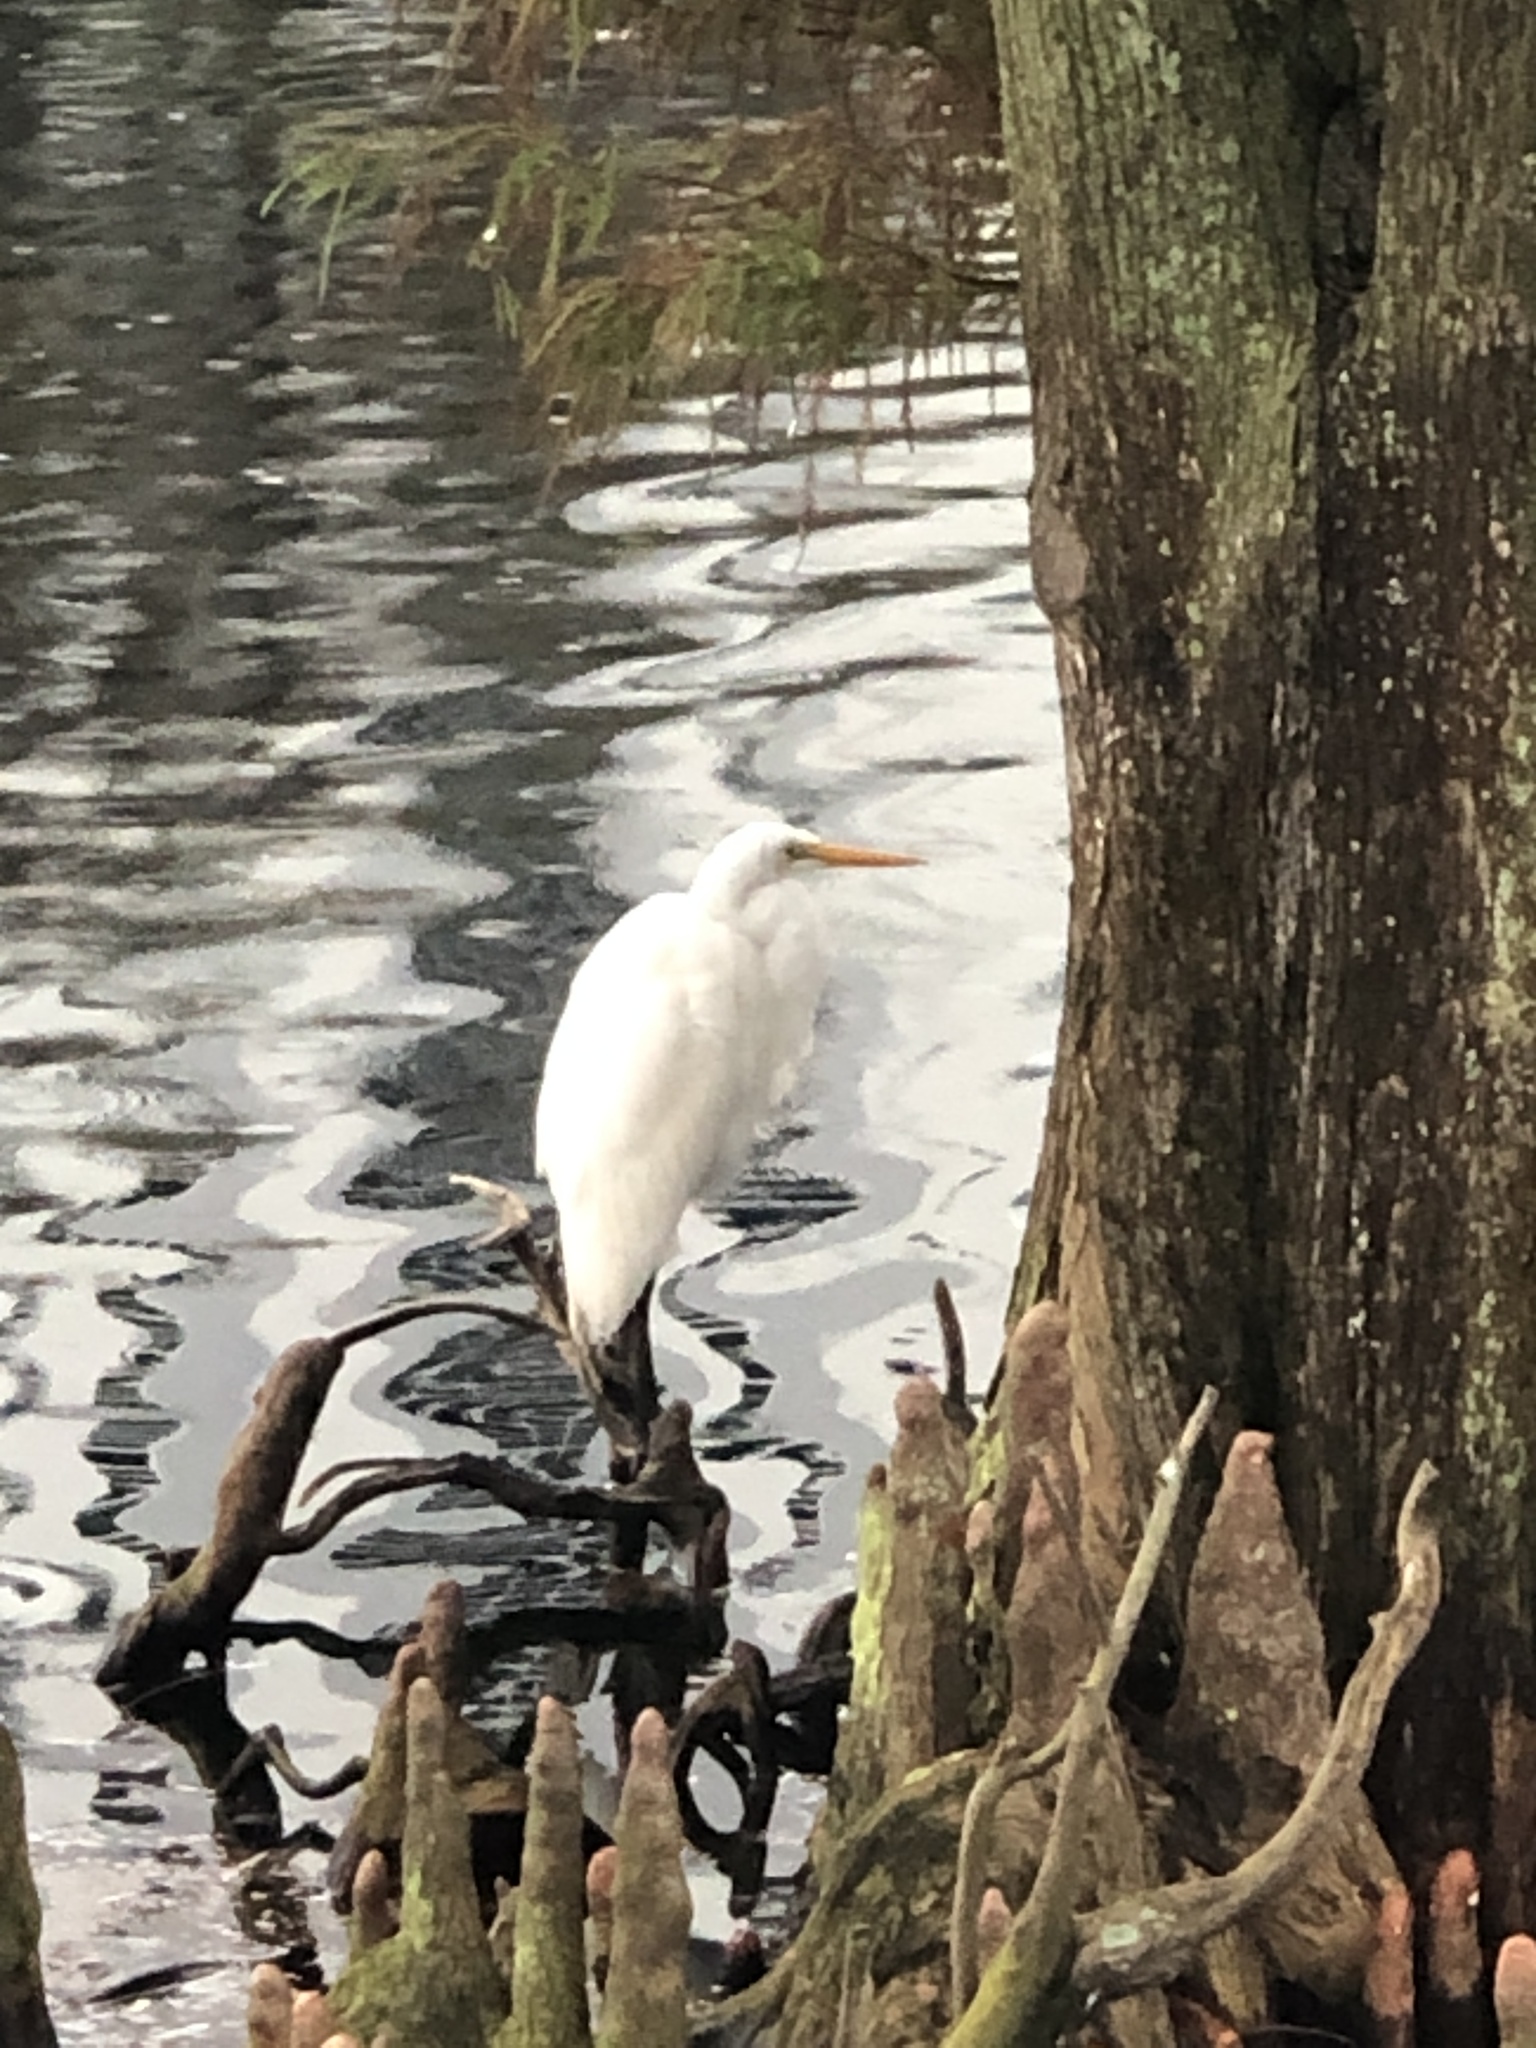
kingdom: Animalia
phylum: Chordata
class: Aves
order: Pelecaniformes
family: Ardeidae
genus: Ardea
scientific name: Ardea alba
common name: Great egret
